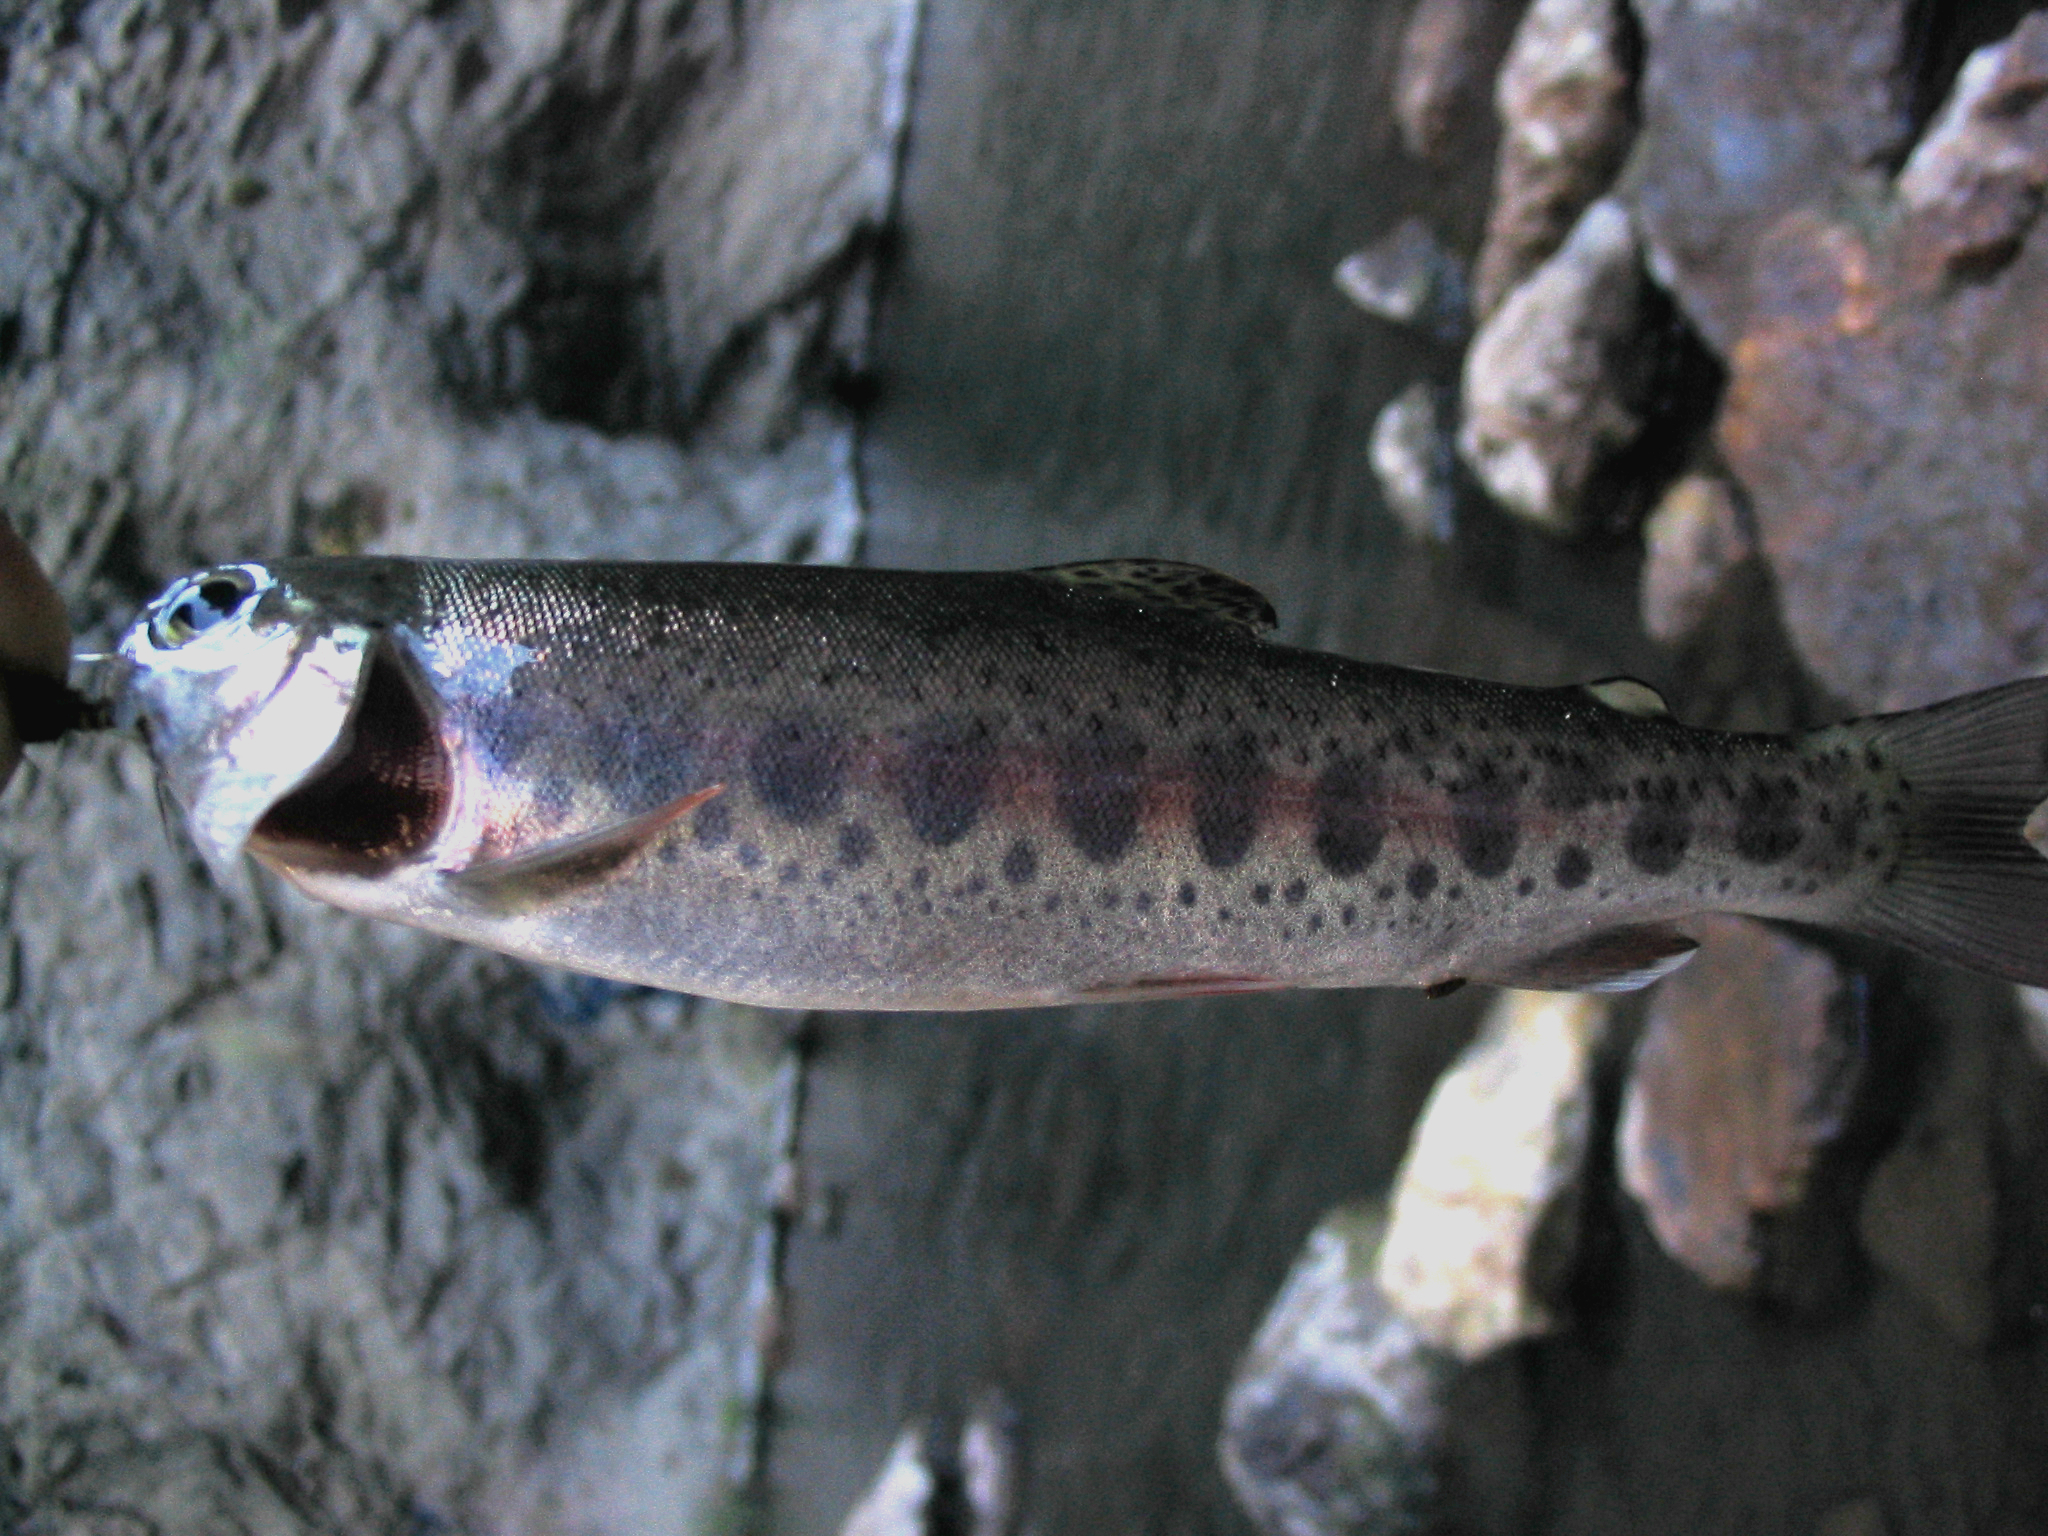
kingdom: Animalia
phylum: Chordata
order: Salmoniformes
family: Salmonidae
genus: Oncorhynchus
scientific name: Oncorhynchus mykiss
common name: Rainbow trout
